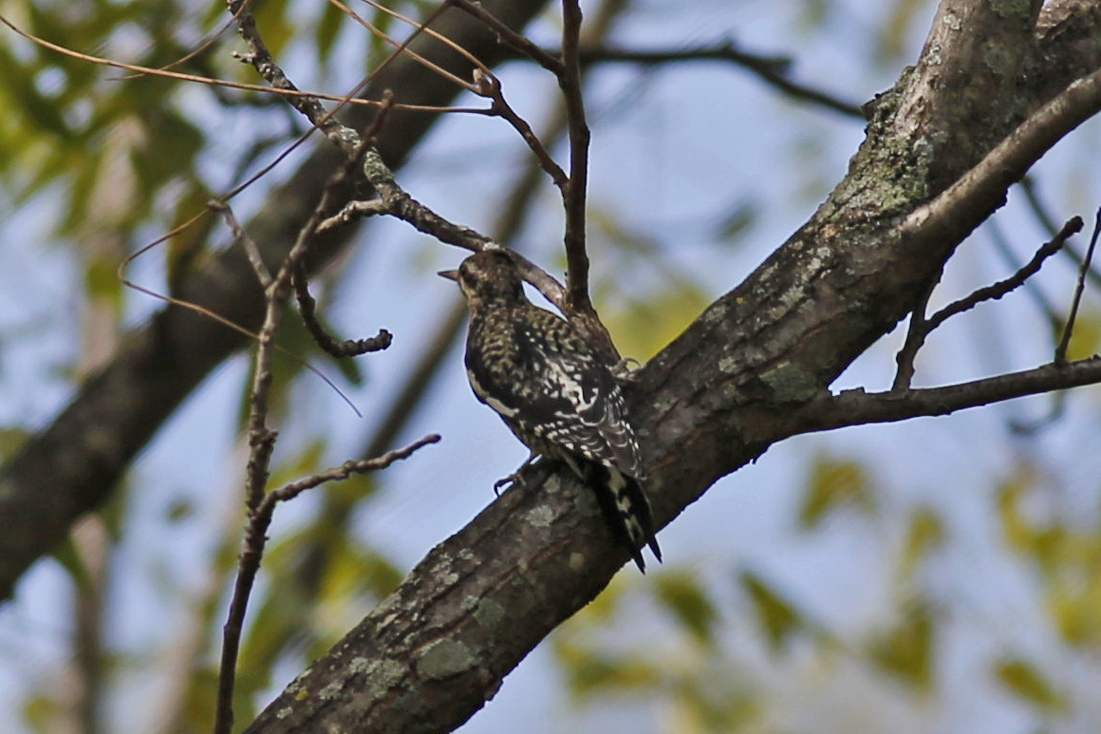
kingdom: Animalia
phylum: Chordata
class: Aves
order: Piciformes
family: Picidae
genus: Sphyrapicus
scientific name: Sphyrapicus varius
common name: Yellow-bellied sapsucker
